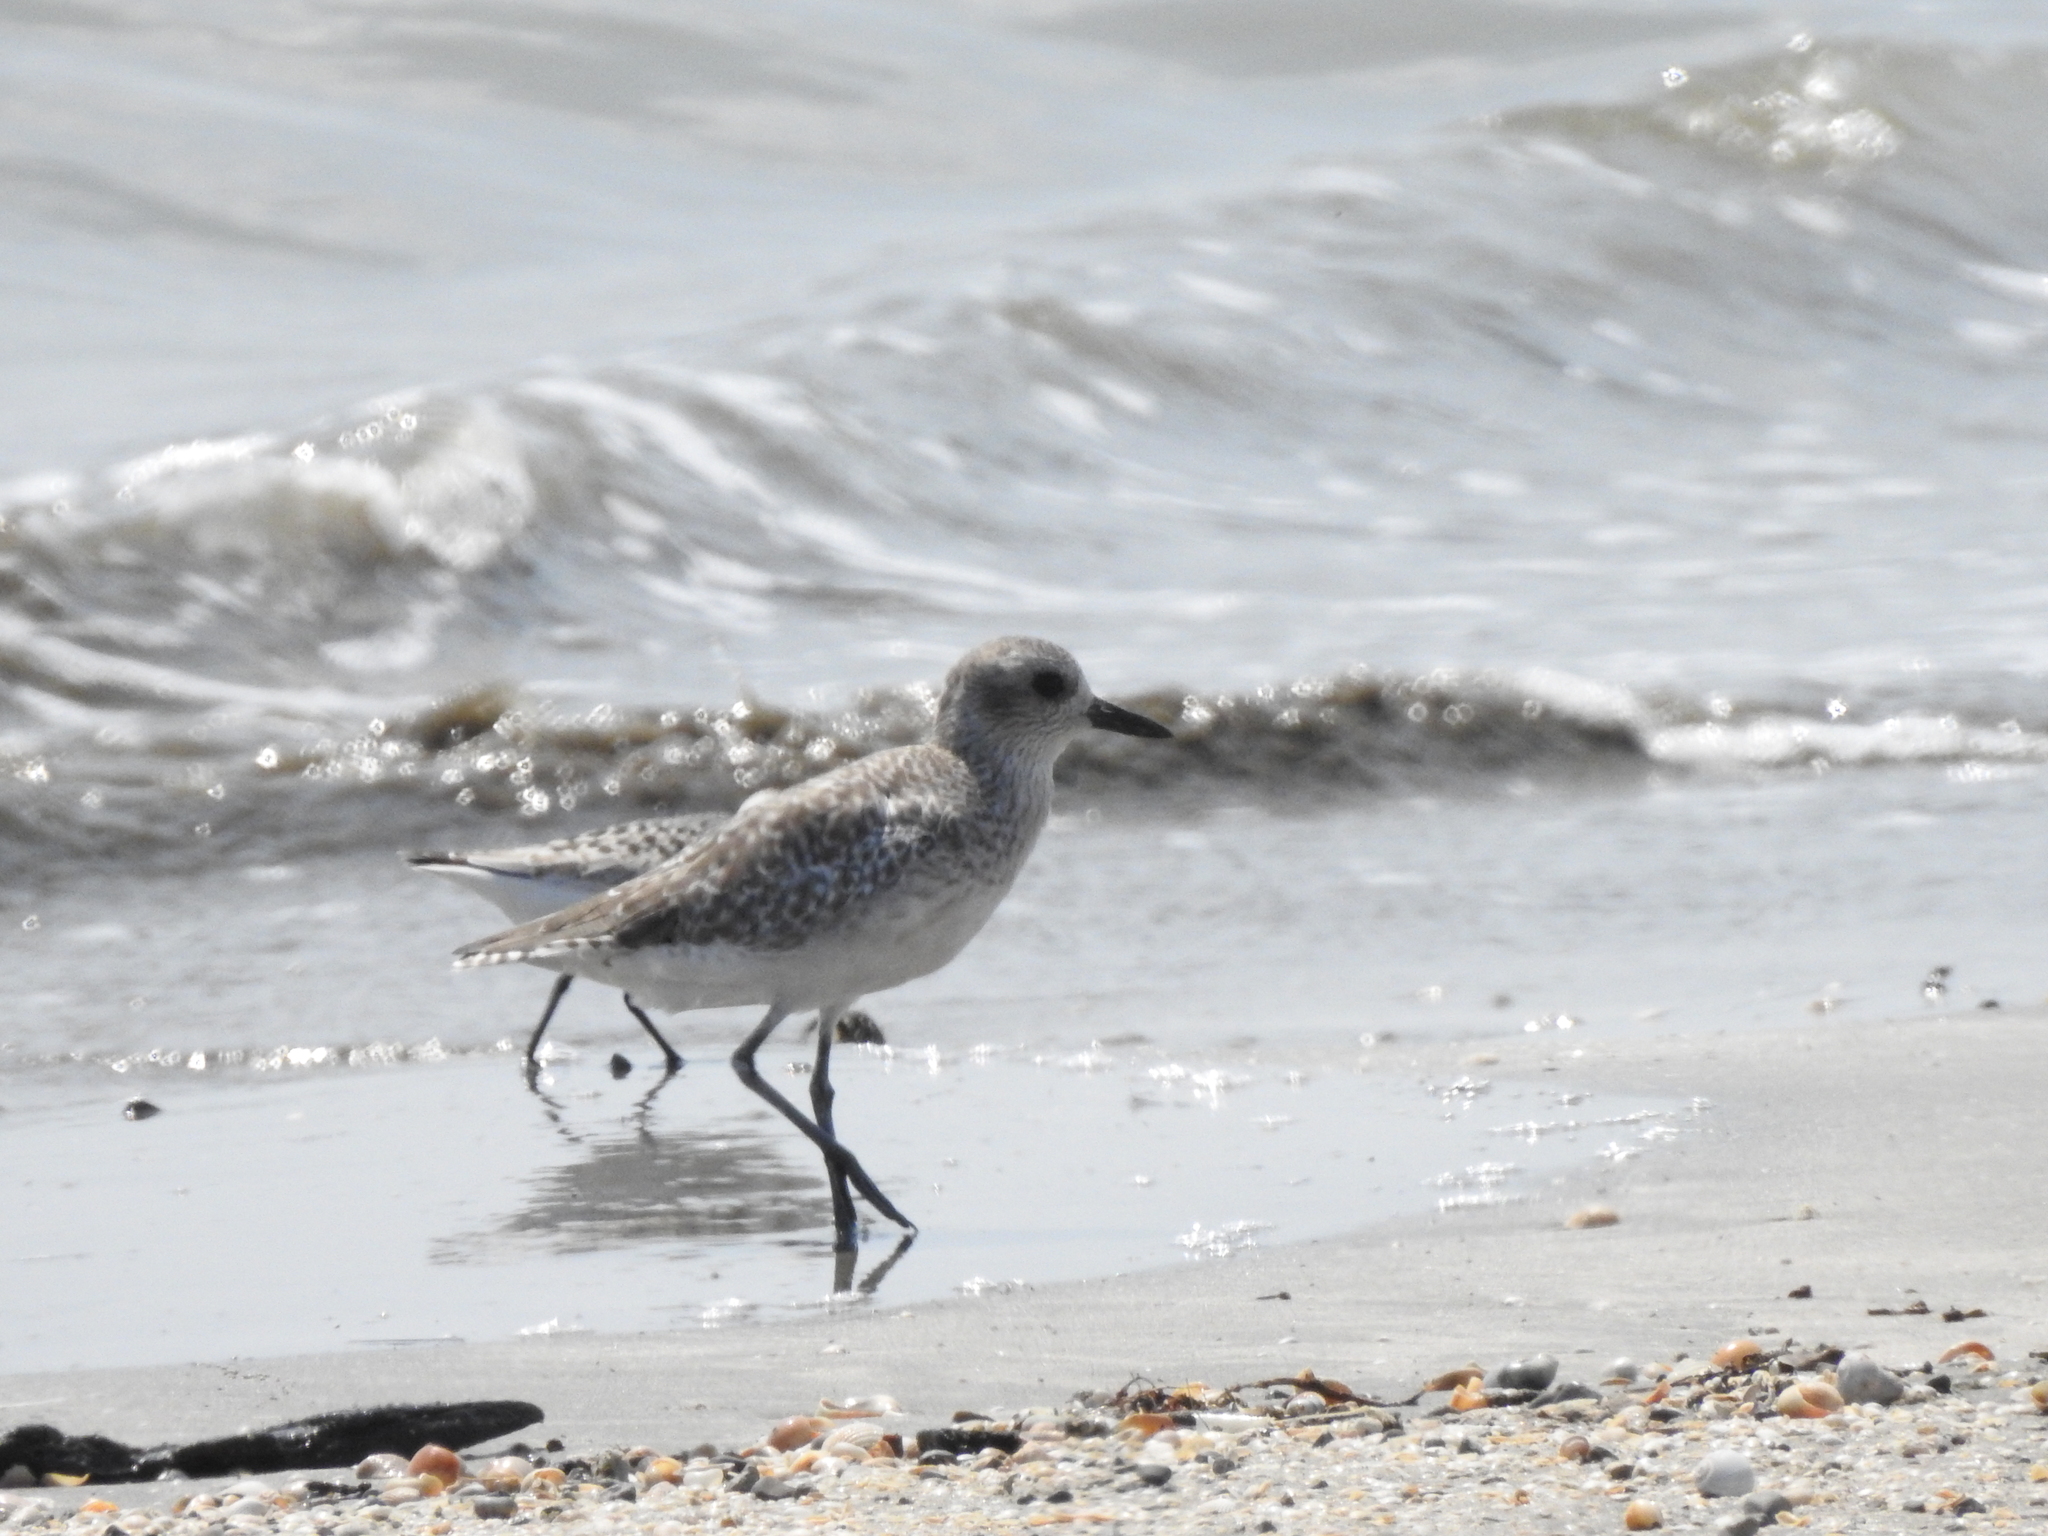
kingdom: Animalia
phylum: Chordata
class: Aves
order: Charadriiformes
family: Charadriidae
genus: Pluvialis
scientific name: Pluvialis squatarola
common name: Grey plover
